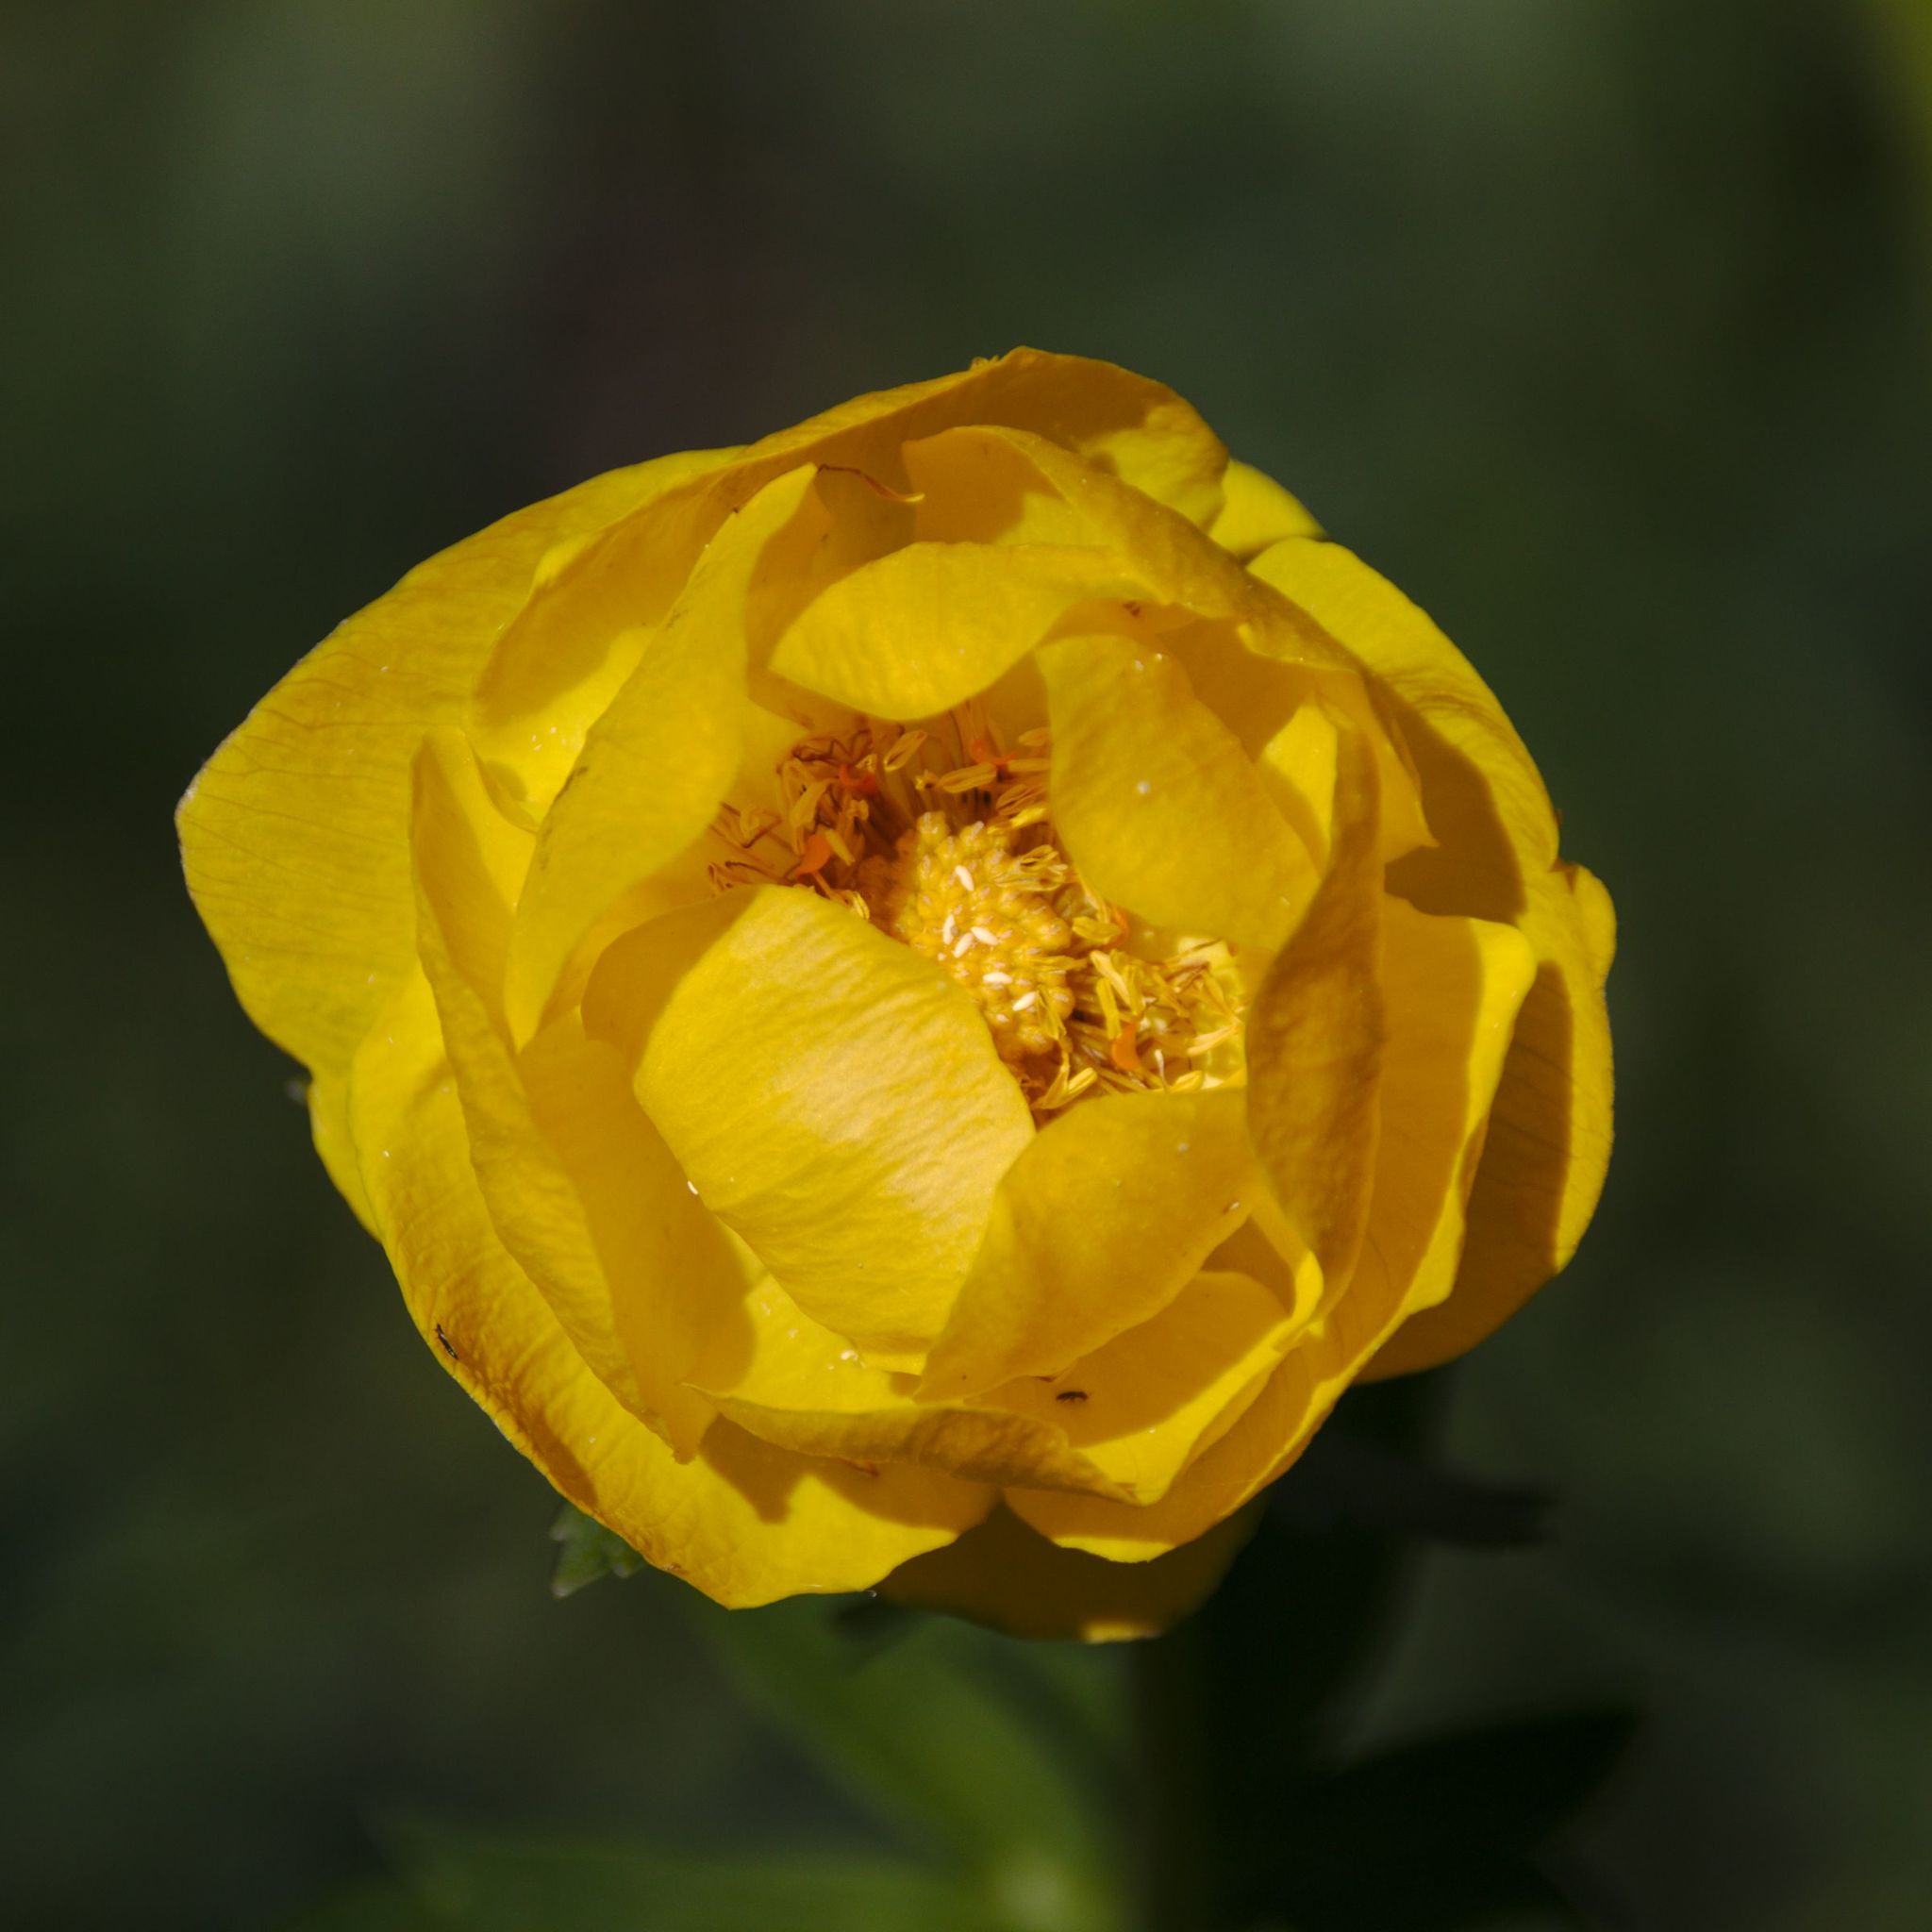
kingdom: Plantae
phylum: Tracheophyta
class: Magnoliopsida
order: Ranunculales
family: Ranunculaceae
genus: Trollius
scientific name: Trollius europaeus
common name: European globeflower
